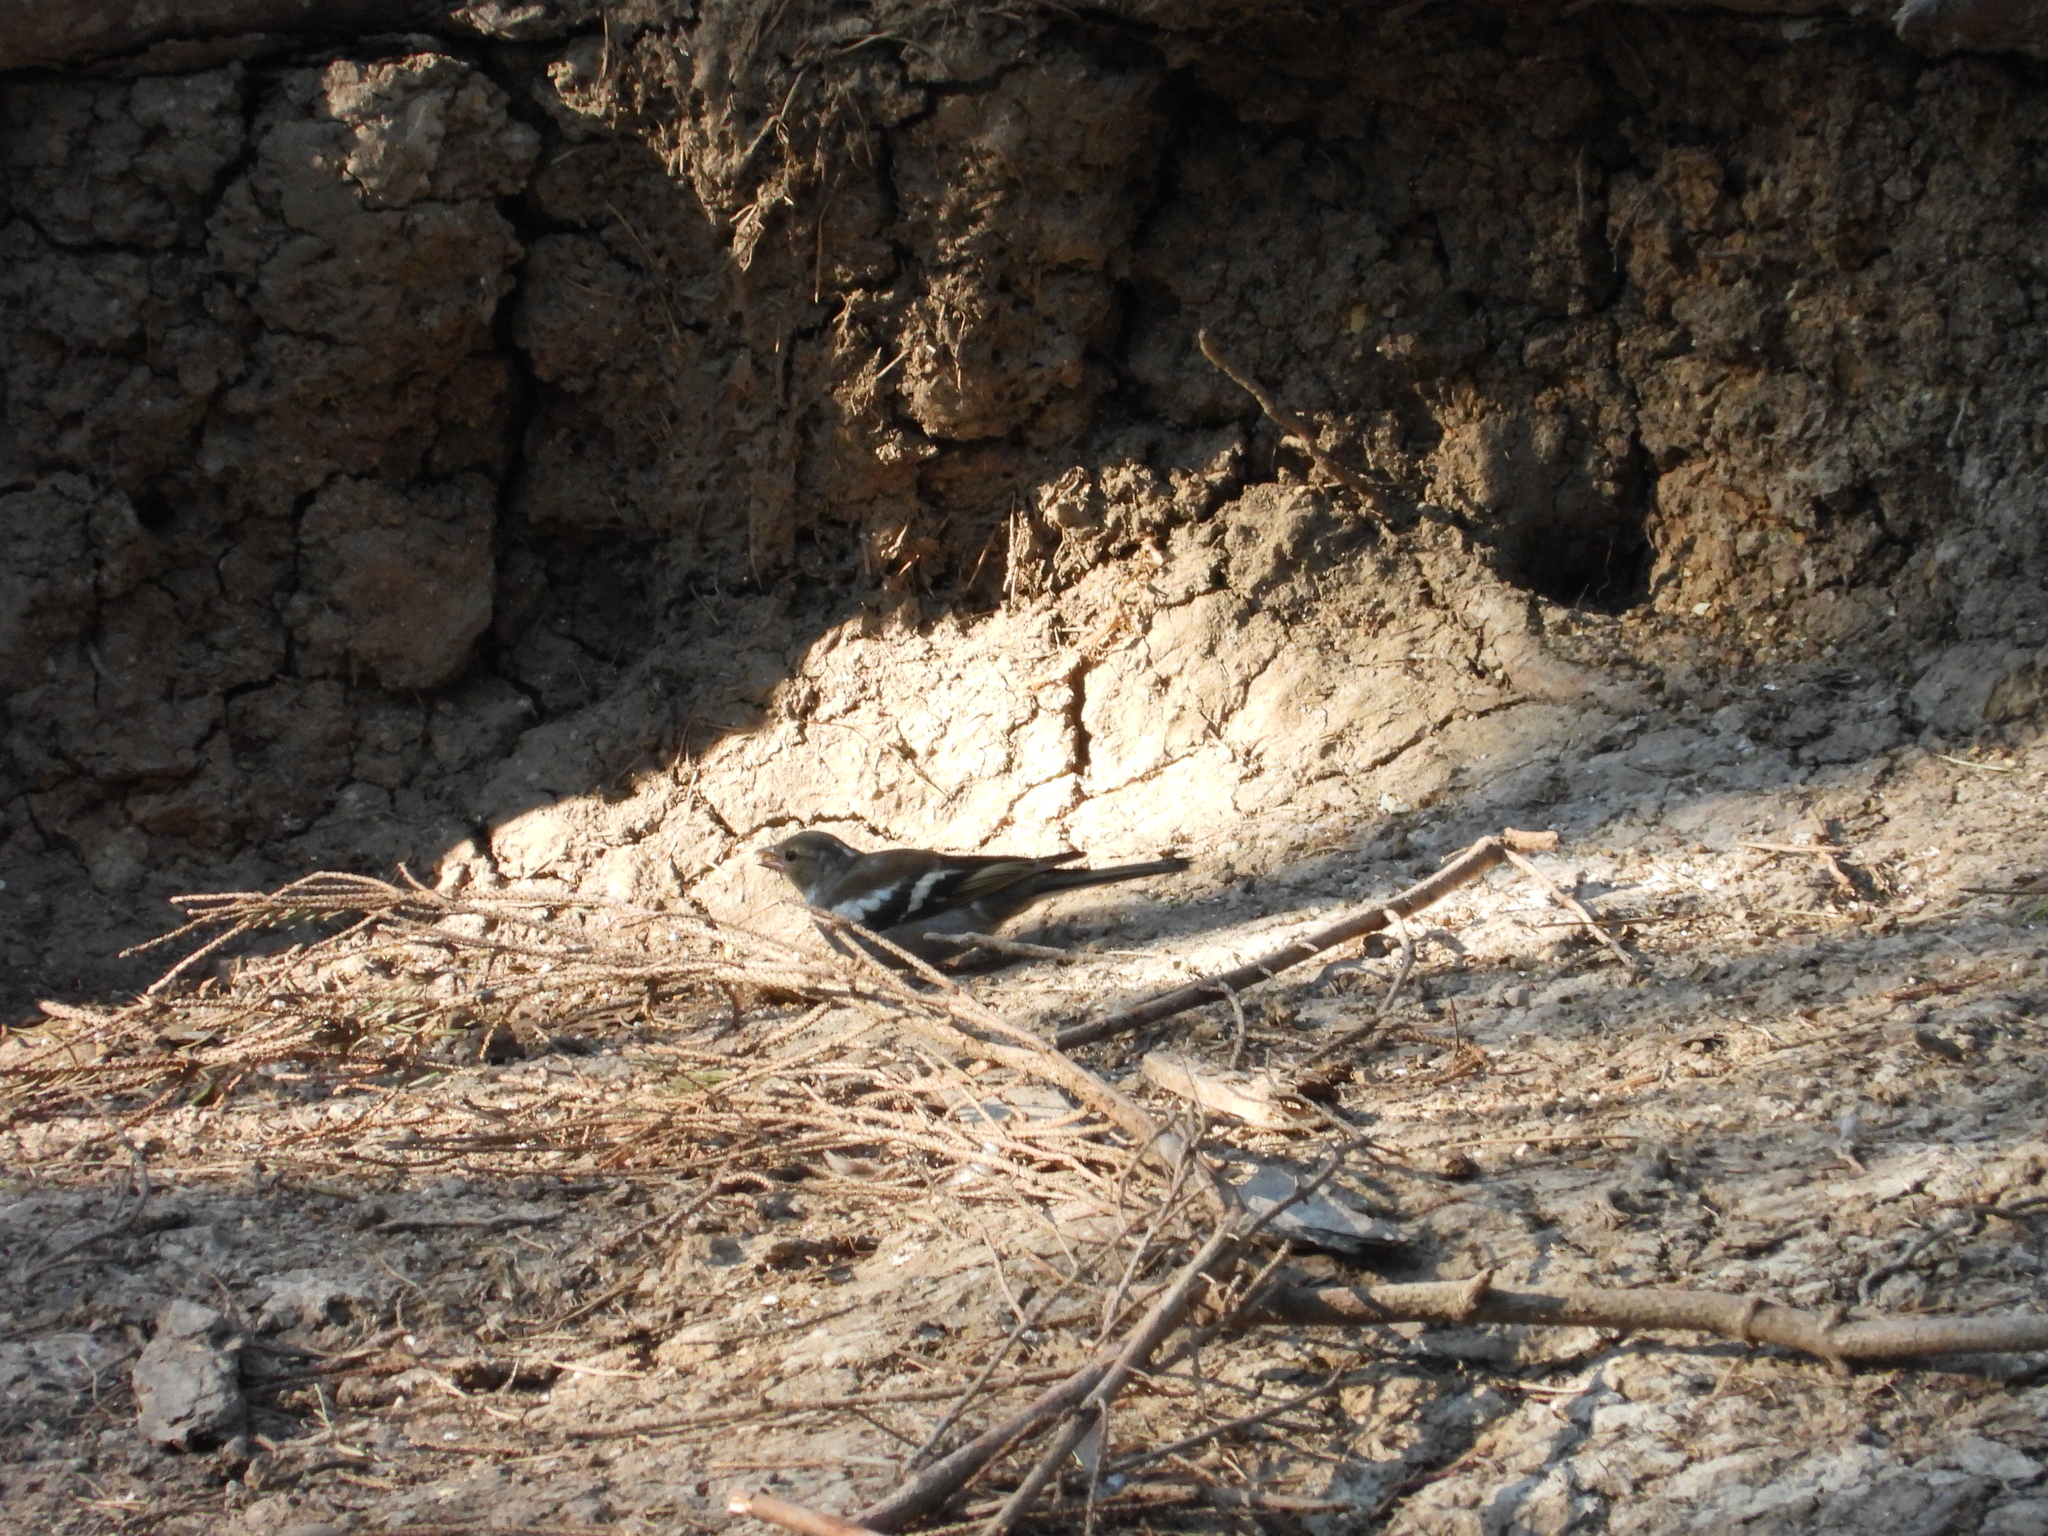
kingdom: Animalia
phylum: Chordata
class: Aves
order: Passeriformes
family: Fringillidae
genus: Fringilla
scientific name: Fringilla coelebs
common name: Common chaffinch
